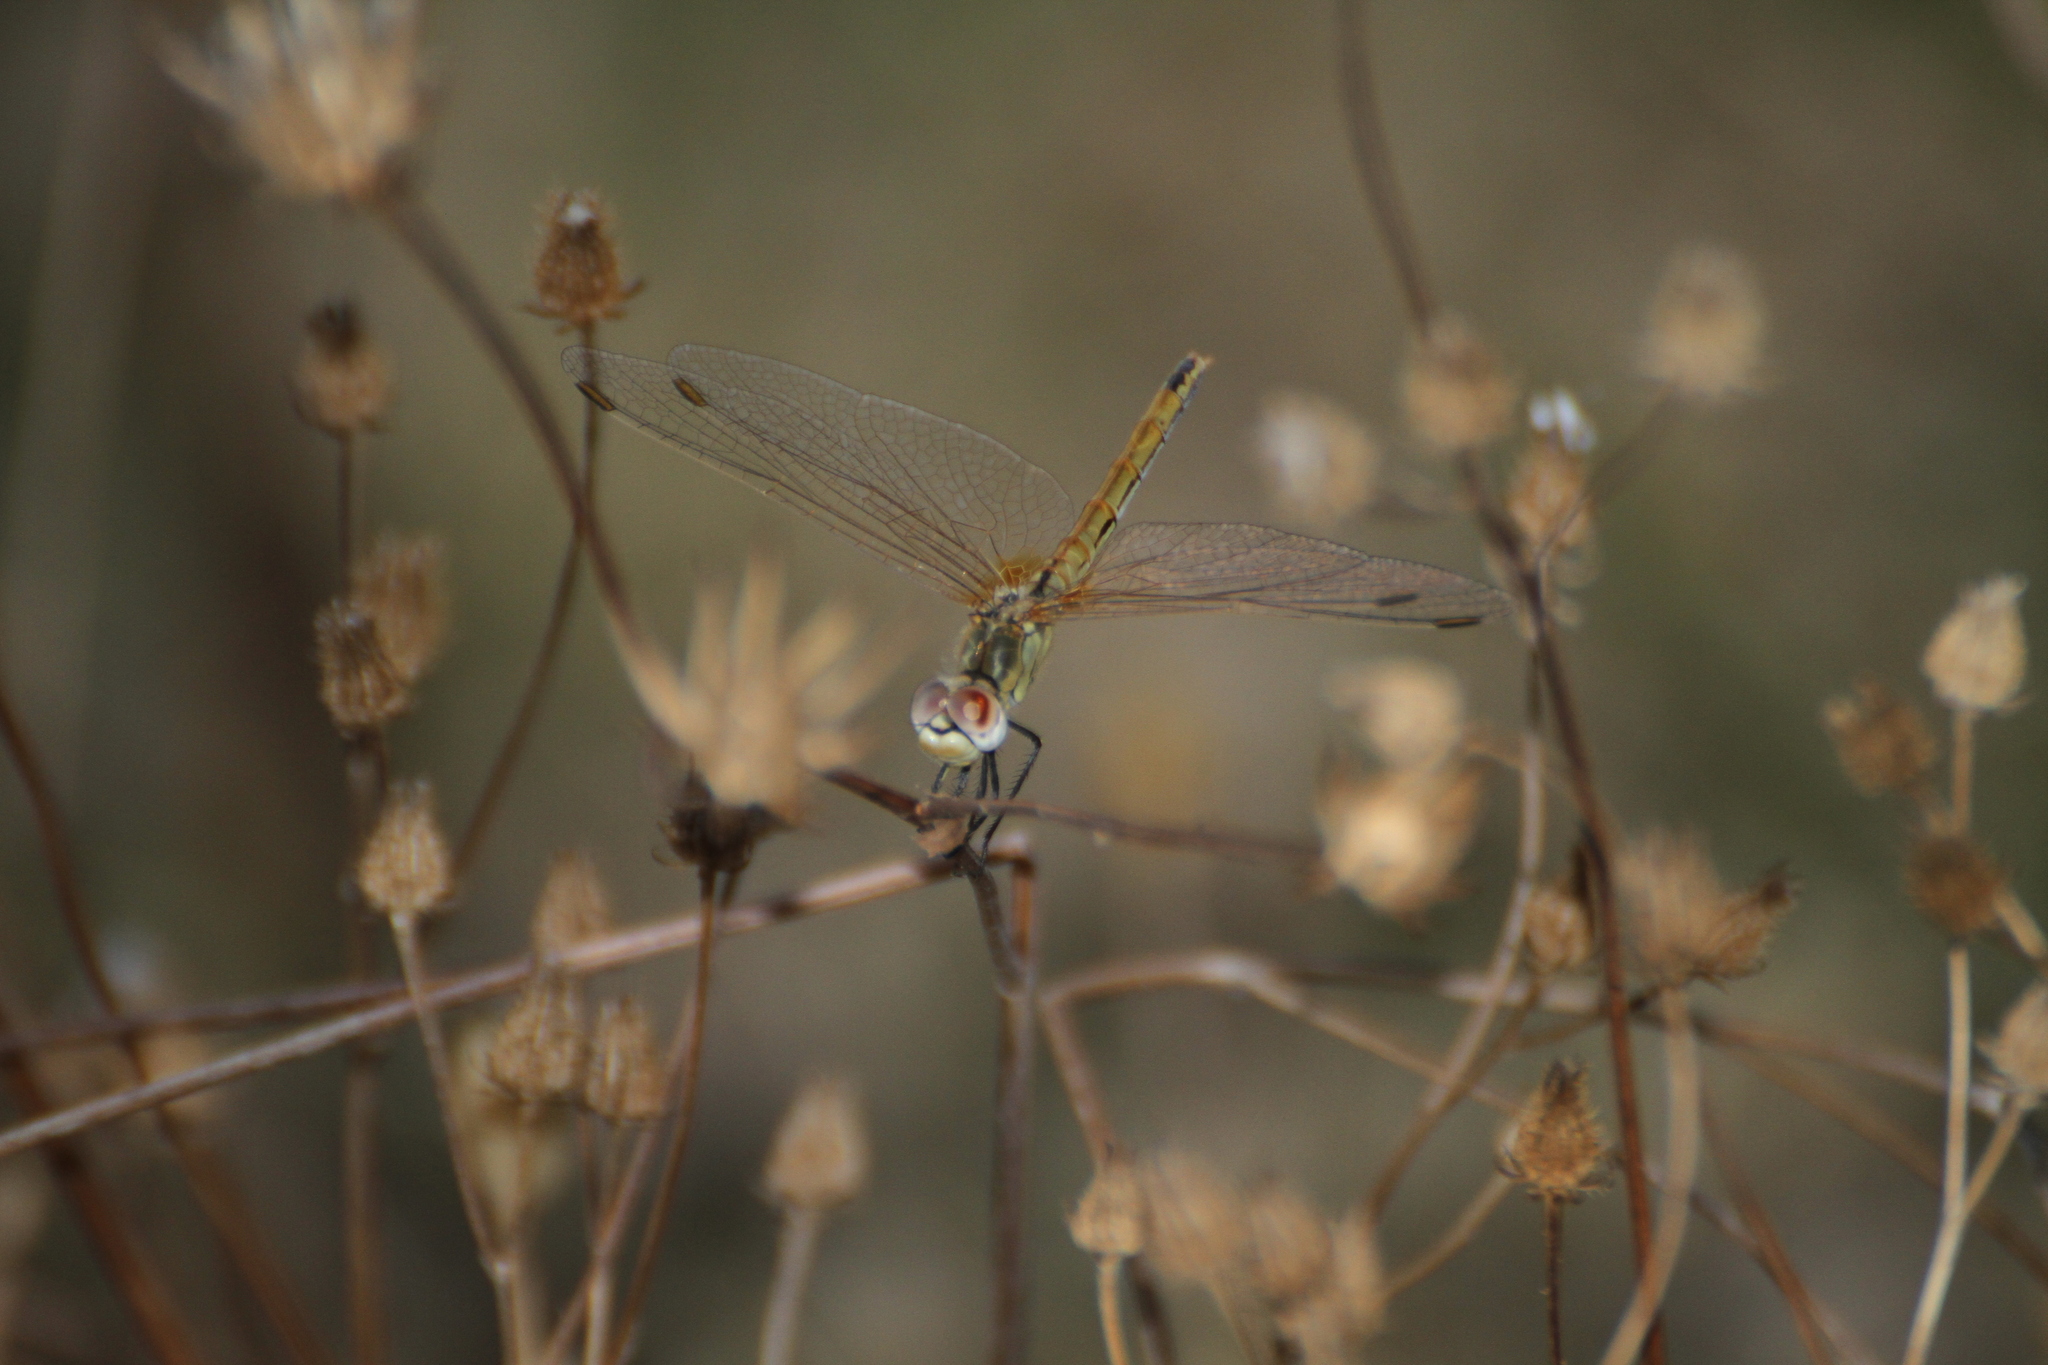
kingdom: Animalia
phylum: Arthropoda
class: Insecta
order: Odonata
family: Libellulidae
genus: Sympetrum
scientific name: Sympetrum fonscolombii
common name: Red-veined darter
